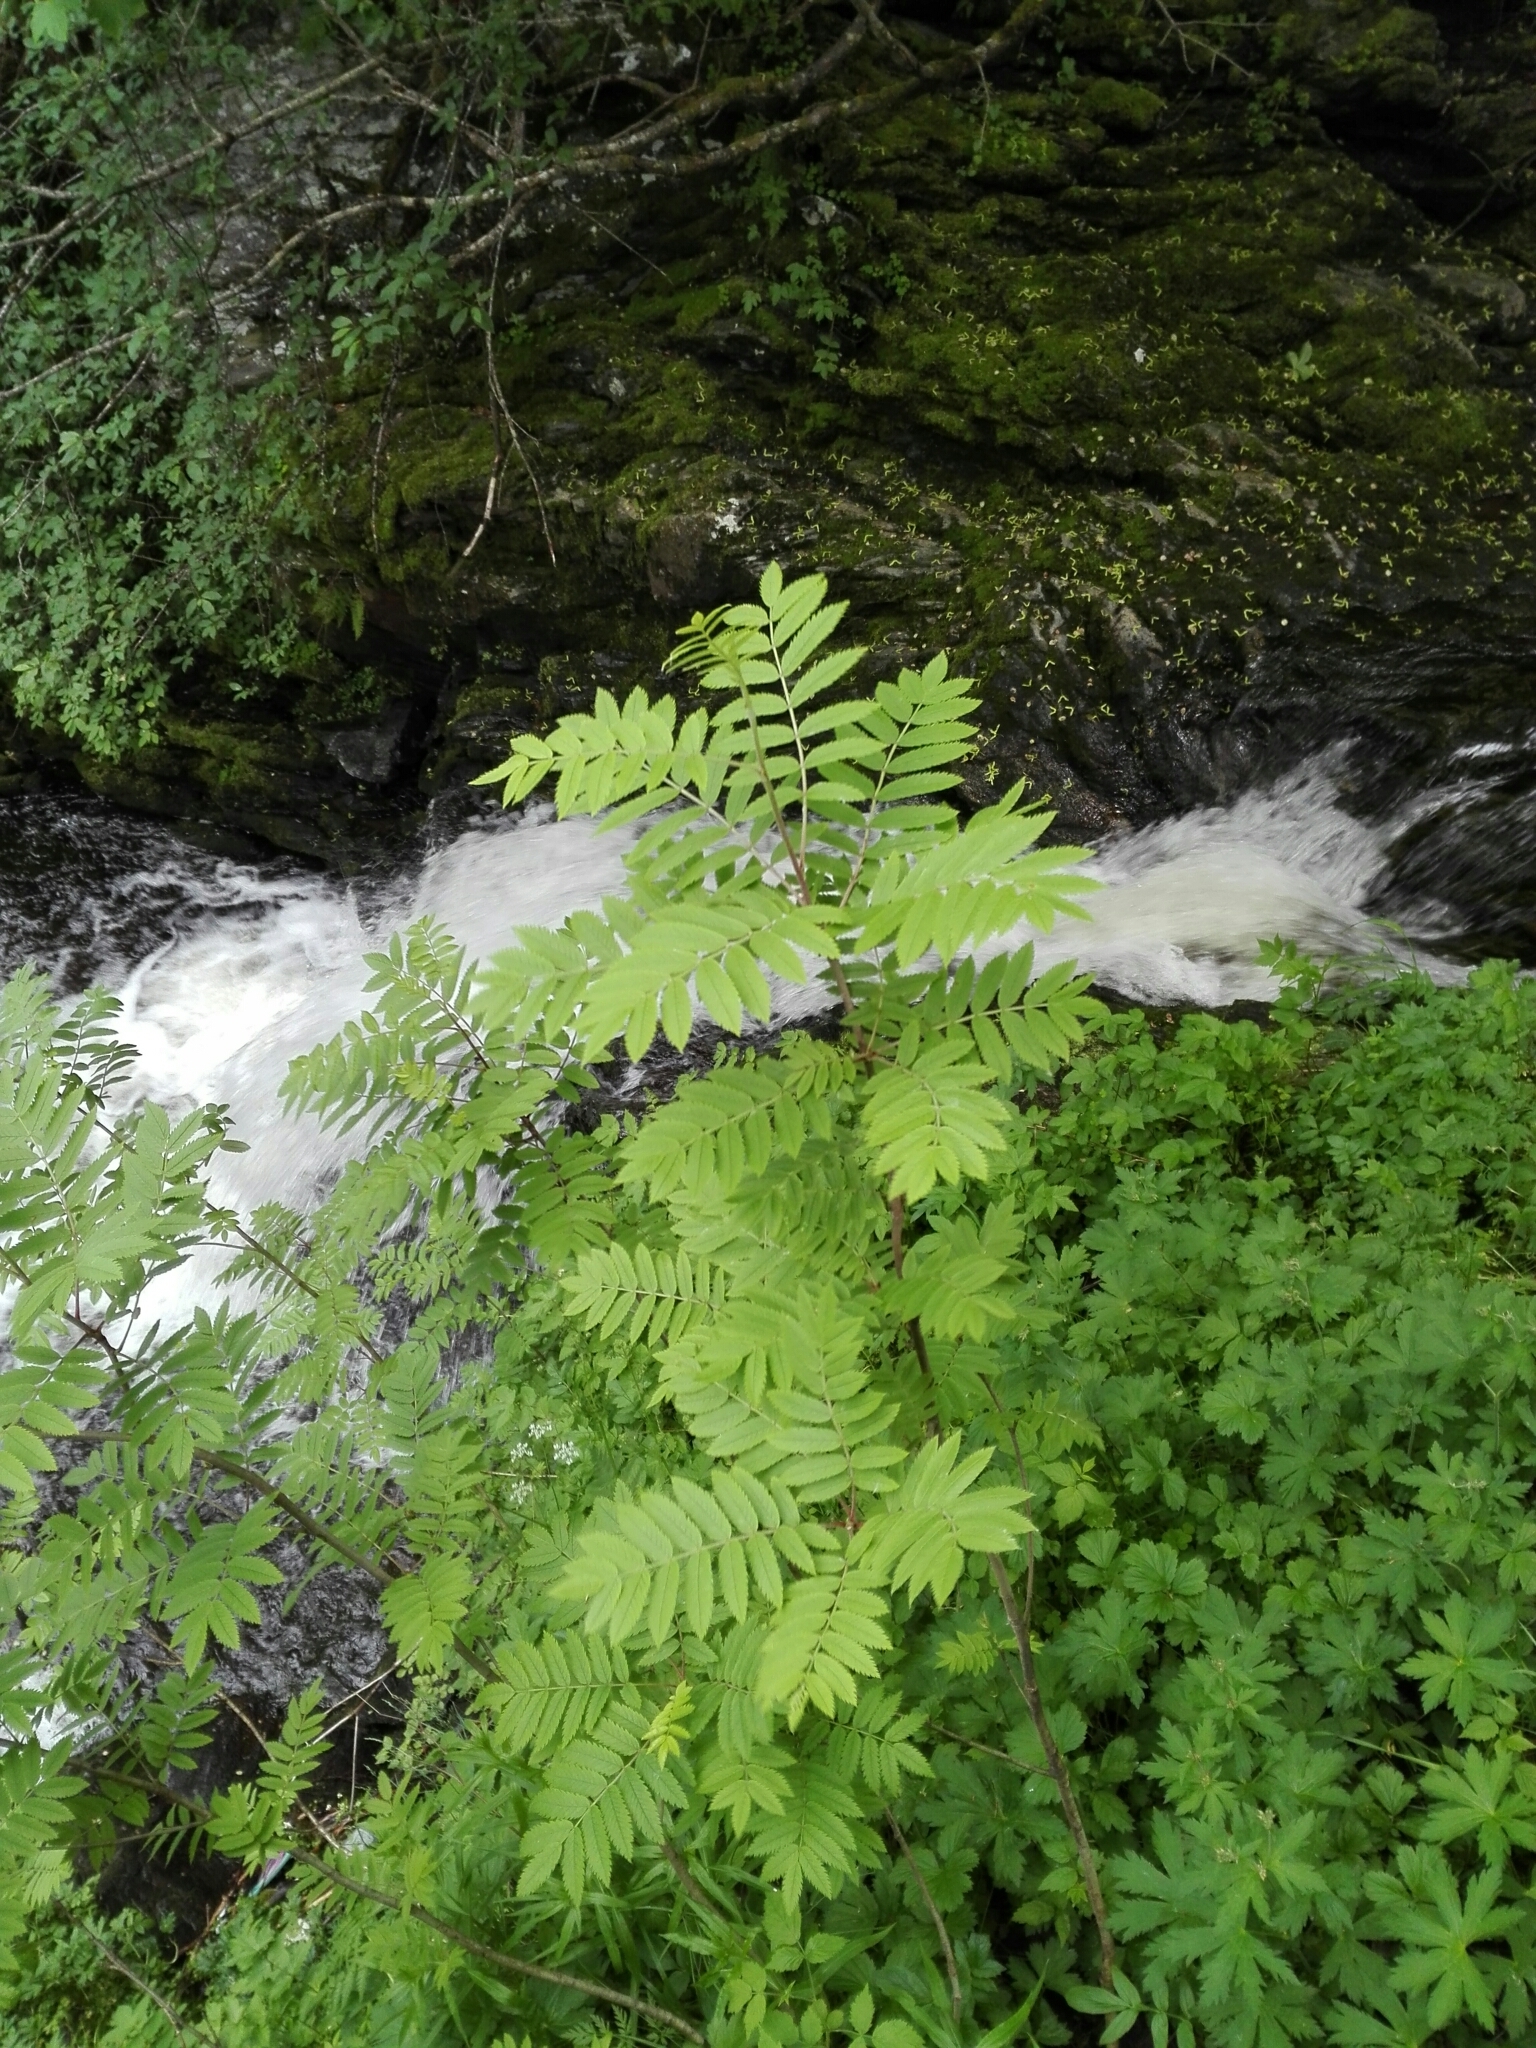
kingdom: Plantae
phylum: Tracheophyta
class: Magnoliopsida
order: Rosales
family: Rosaceae
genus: Sorbus
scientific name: Sorbus aucuparia
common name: Rowan
